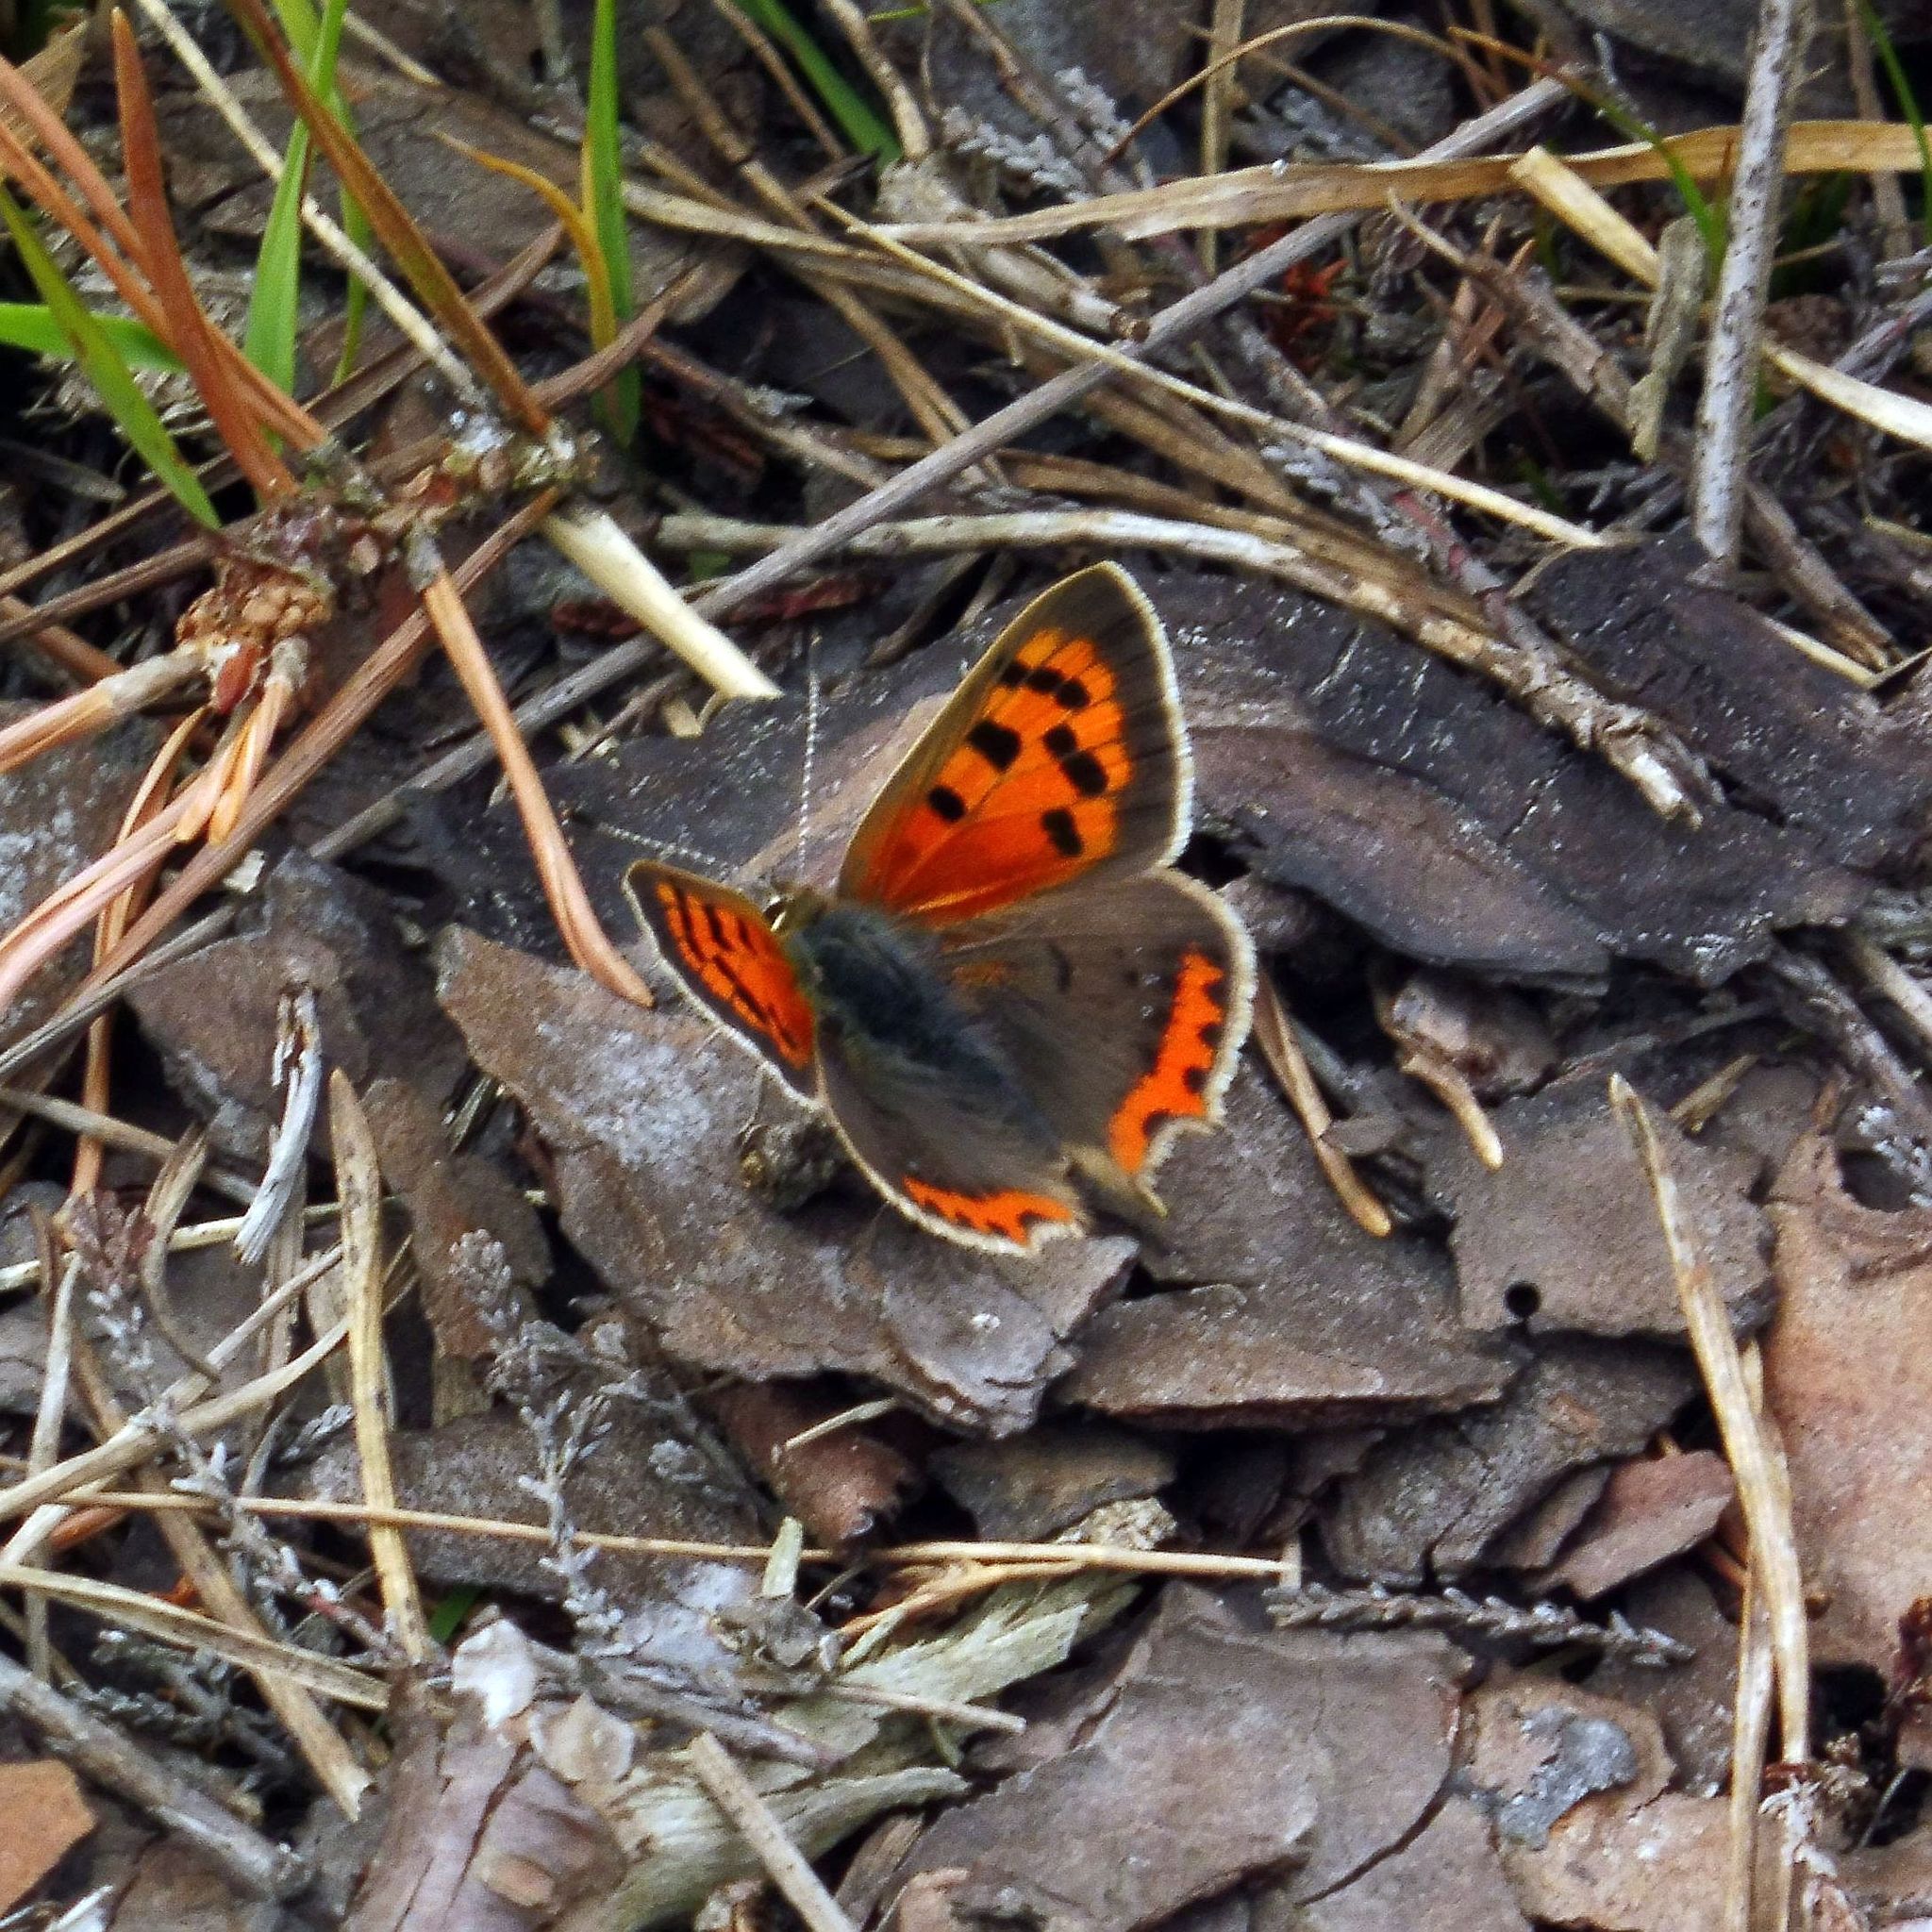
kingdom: Animalia
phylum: Arthropoda
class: Insecta
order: Lepidoptera
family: Lycaenidae
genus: Lycaena
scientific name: Lycaena phlaeas
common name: Small copper
